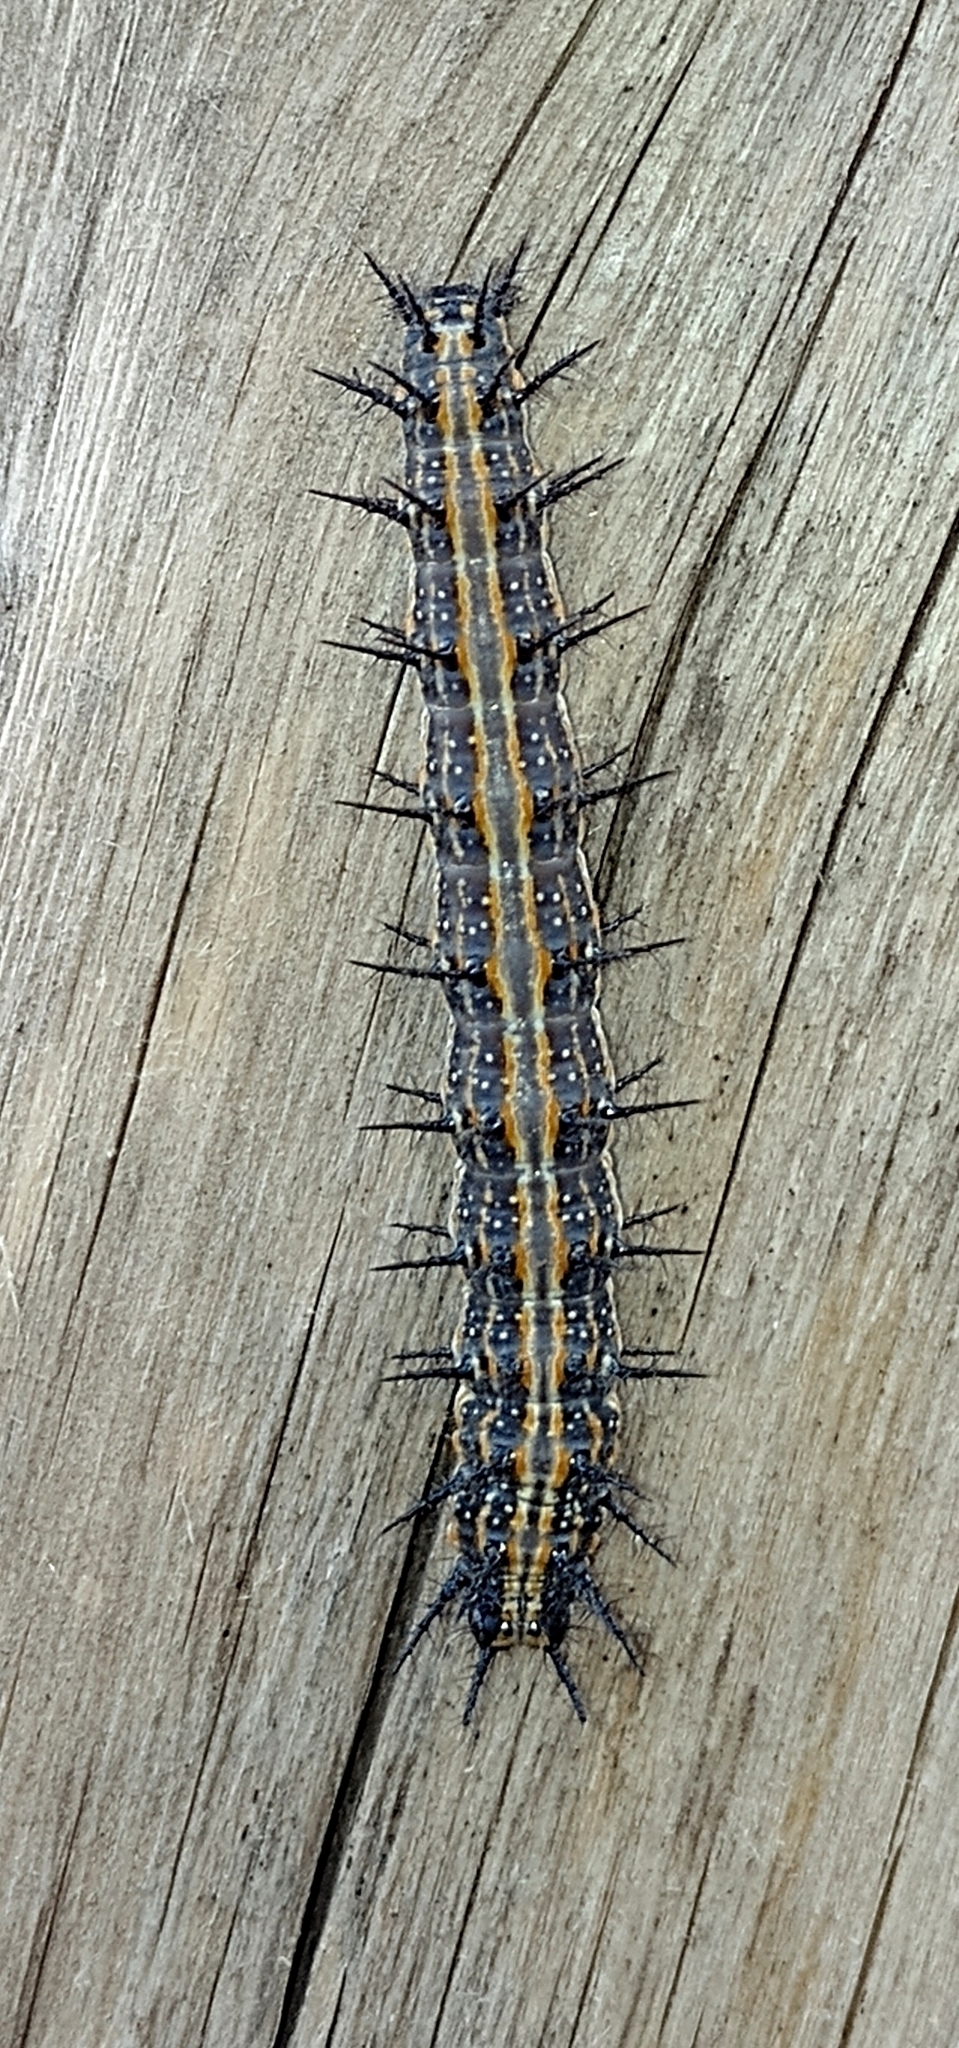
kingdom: Animalia
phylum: Arthropoda
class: Insecta
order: Lepidoptera
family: Nymphalidae
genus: Dione
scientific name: Dione vanillae
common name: Gulf fritillary
